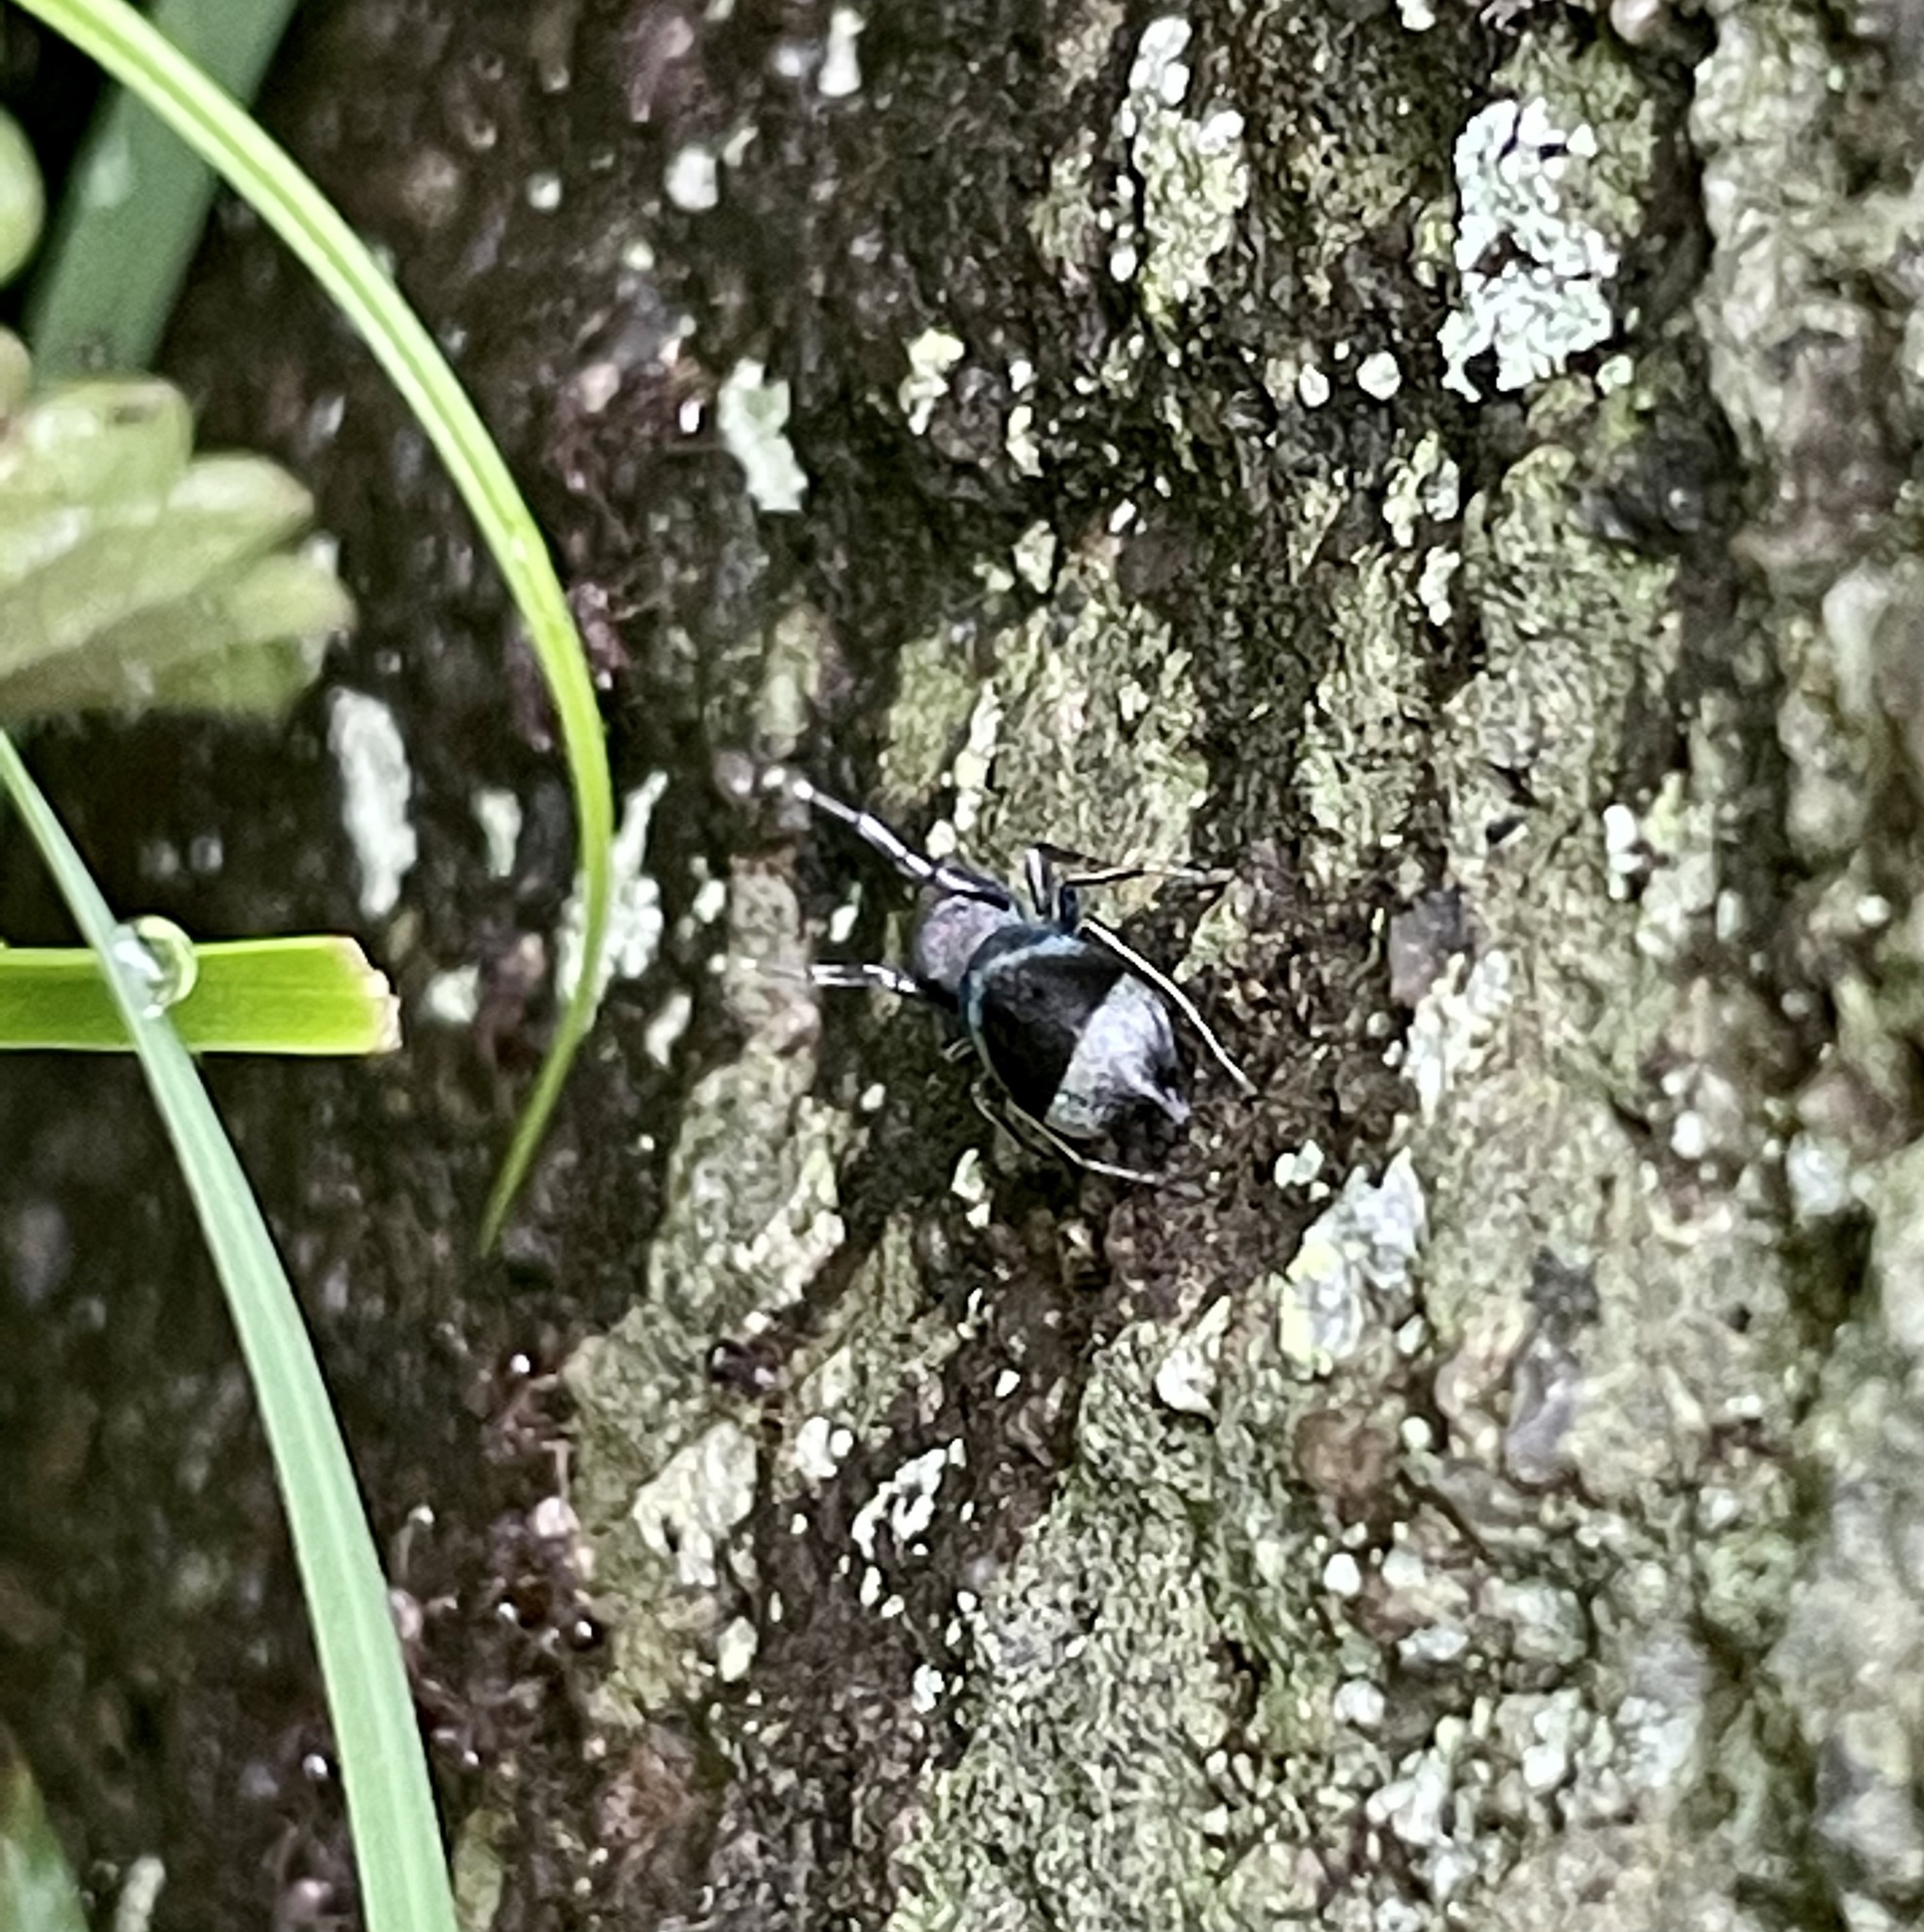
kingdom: Animalia
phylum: Arthropoda
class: Arachnida
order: Araneae
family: Salticidae
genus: Siler
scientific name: Siler cupreus
